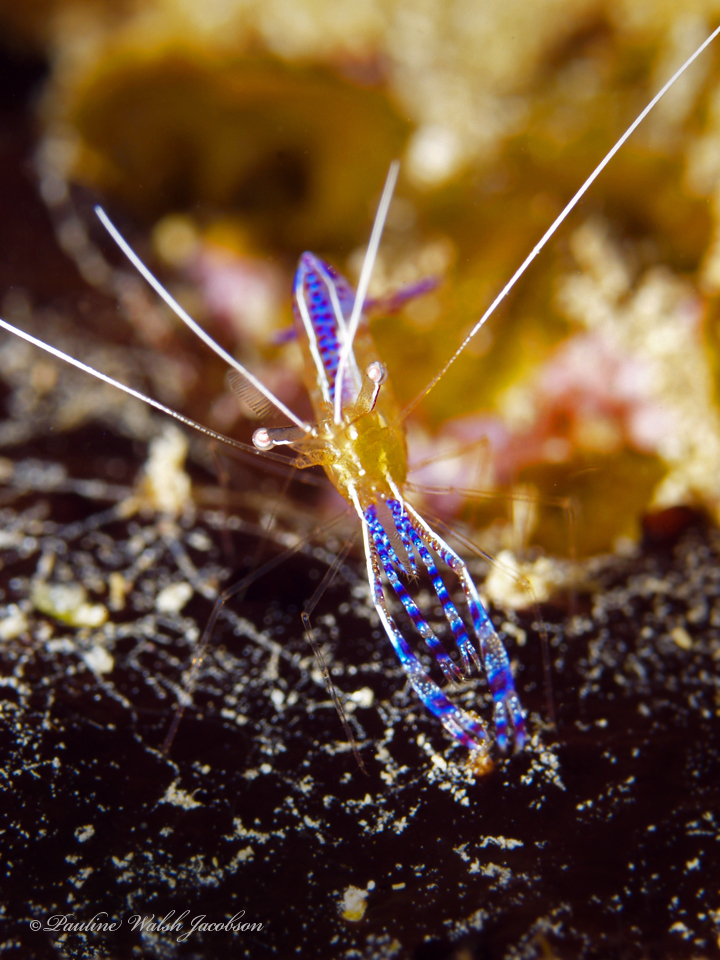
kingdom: Animalia
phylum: Arthropoda
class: Malacostraca
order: Decapoda
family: Palaemonidae
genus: Ancylomenes
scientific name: Ancylomenes pedersoni
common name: Pederson's cleaning shrimp
